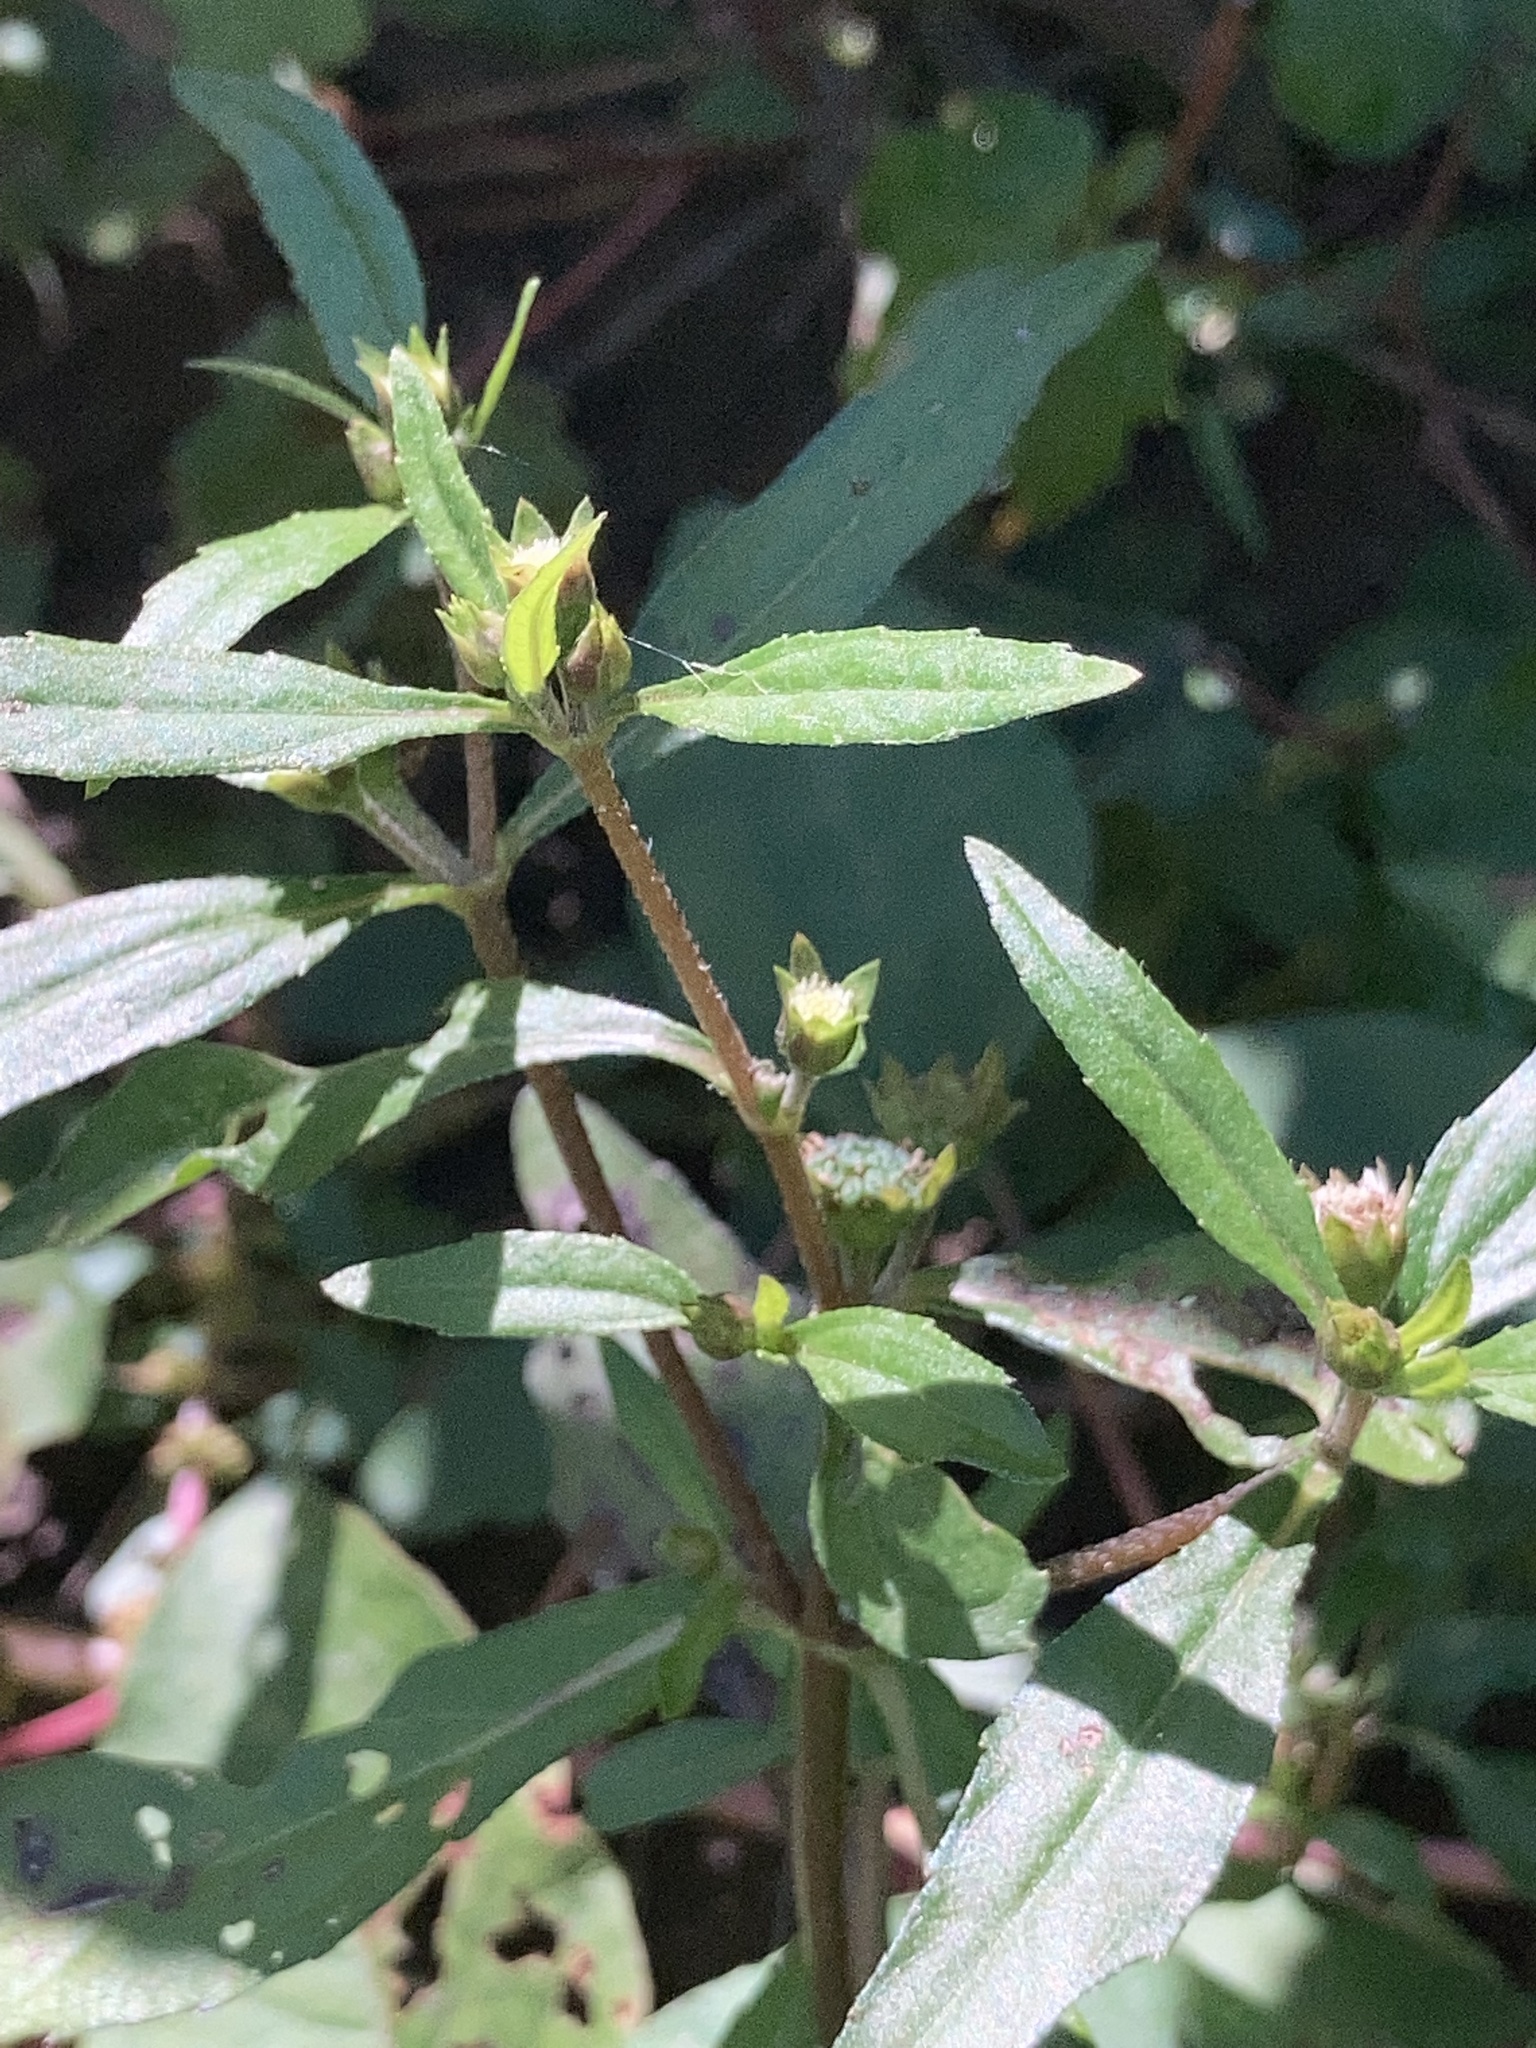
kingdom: Plantae
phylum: Tracheophyta
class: Magnoliopsida
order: Asterales
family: Asteraceae
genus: Eclipta
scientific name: Eclipta prostrata
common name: False daisy
